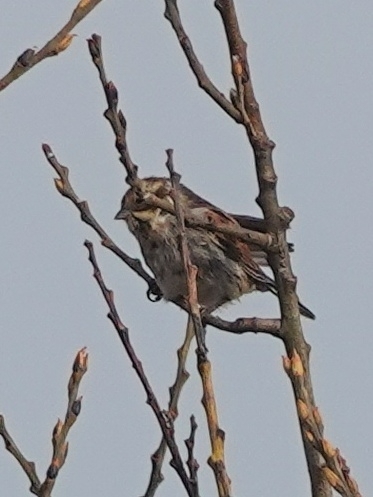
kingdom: Animalia
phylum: Chordata
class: Aves
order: Passeriformes
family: Emberizidae
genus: Emberiza
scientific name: Emberiza schoeniclus
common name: Reed bunting
